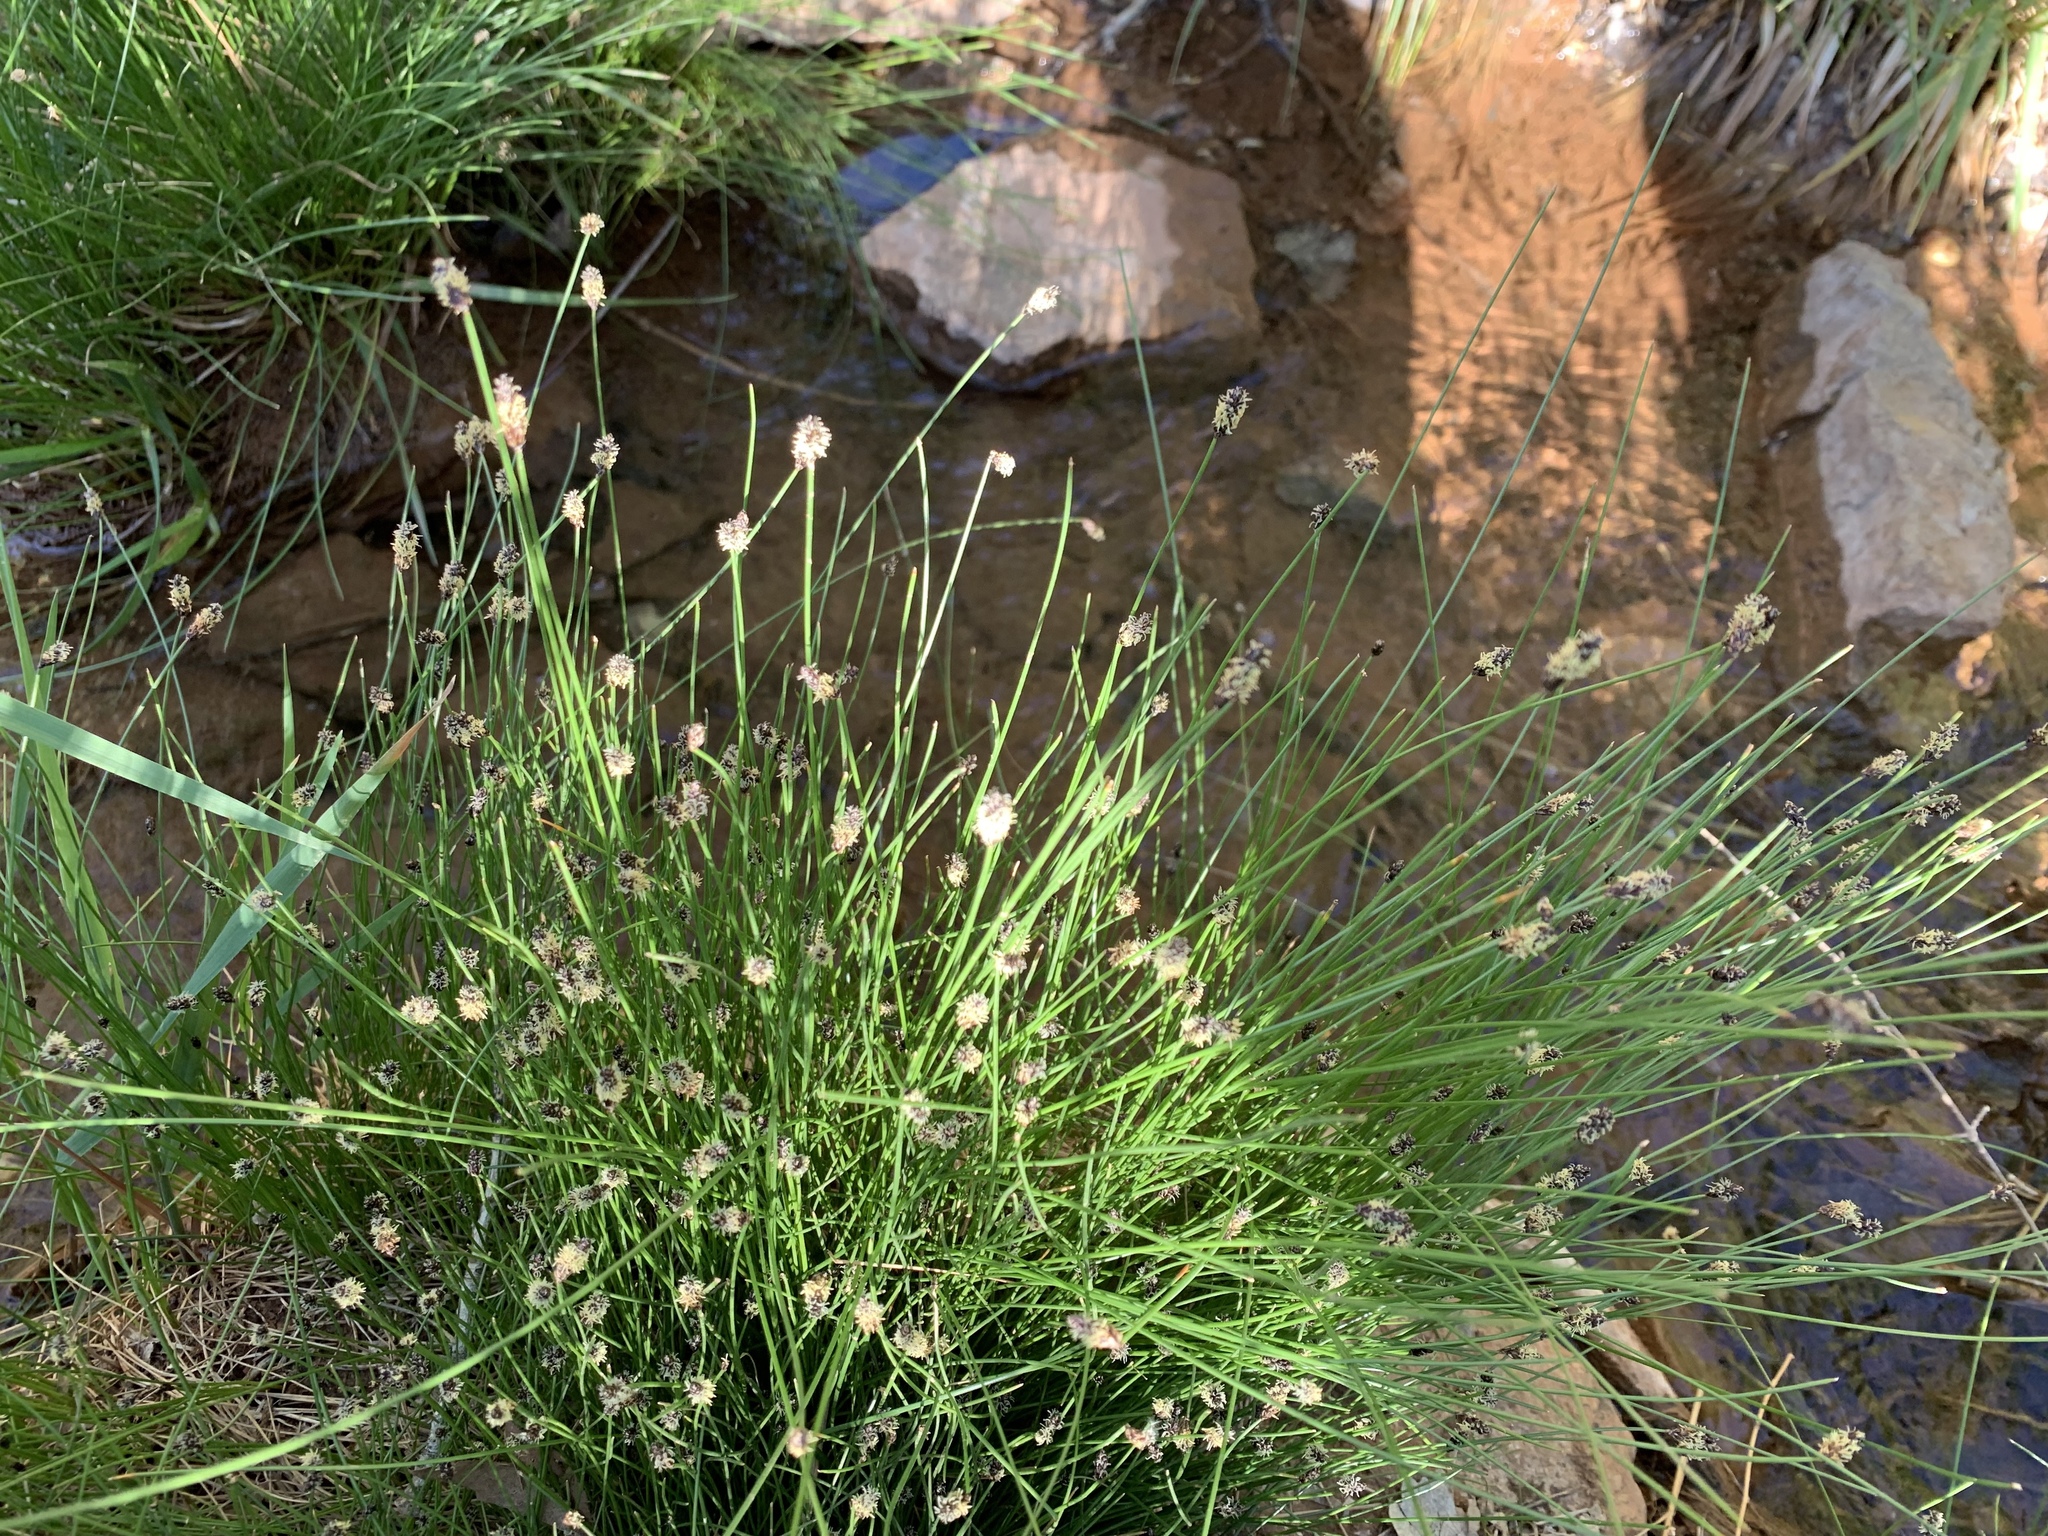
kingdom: Plantae
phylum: Tracheophyta
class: Liliopsida
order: Poales
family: Cyperaceae
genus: Eleocharis
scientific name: Eleocharis montevidensis
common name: Sand spike-rush
